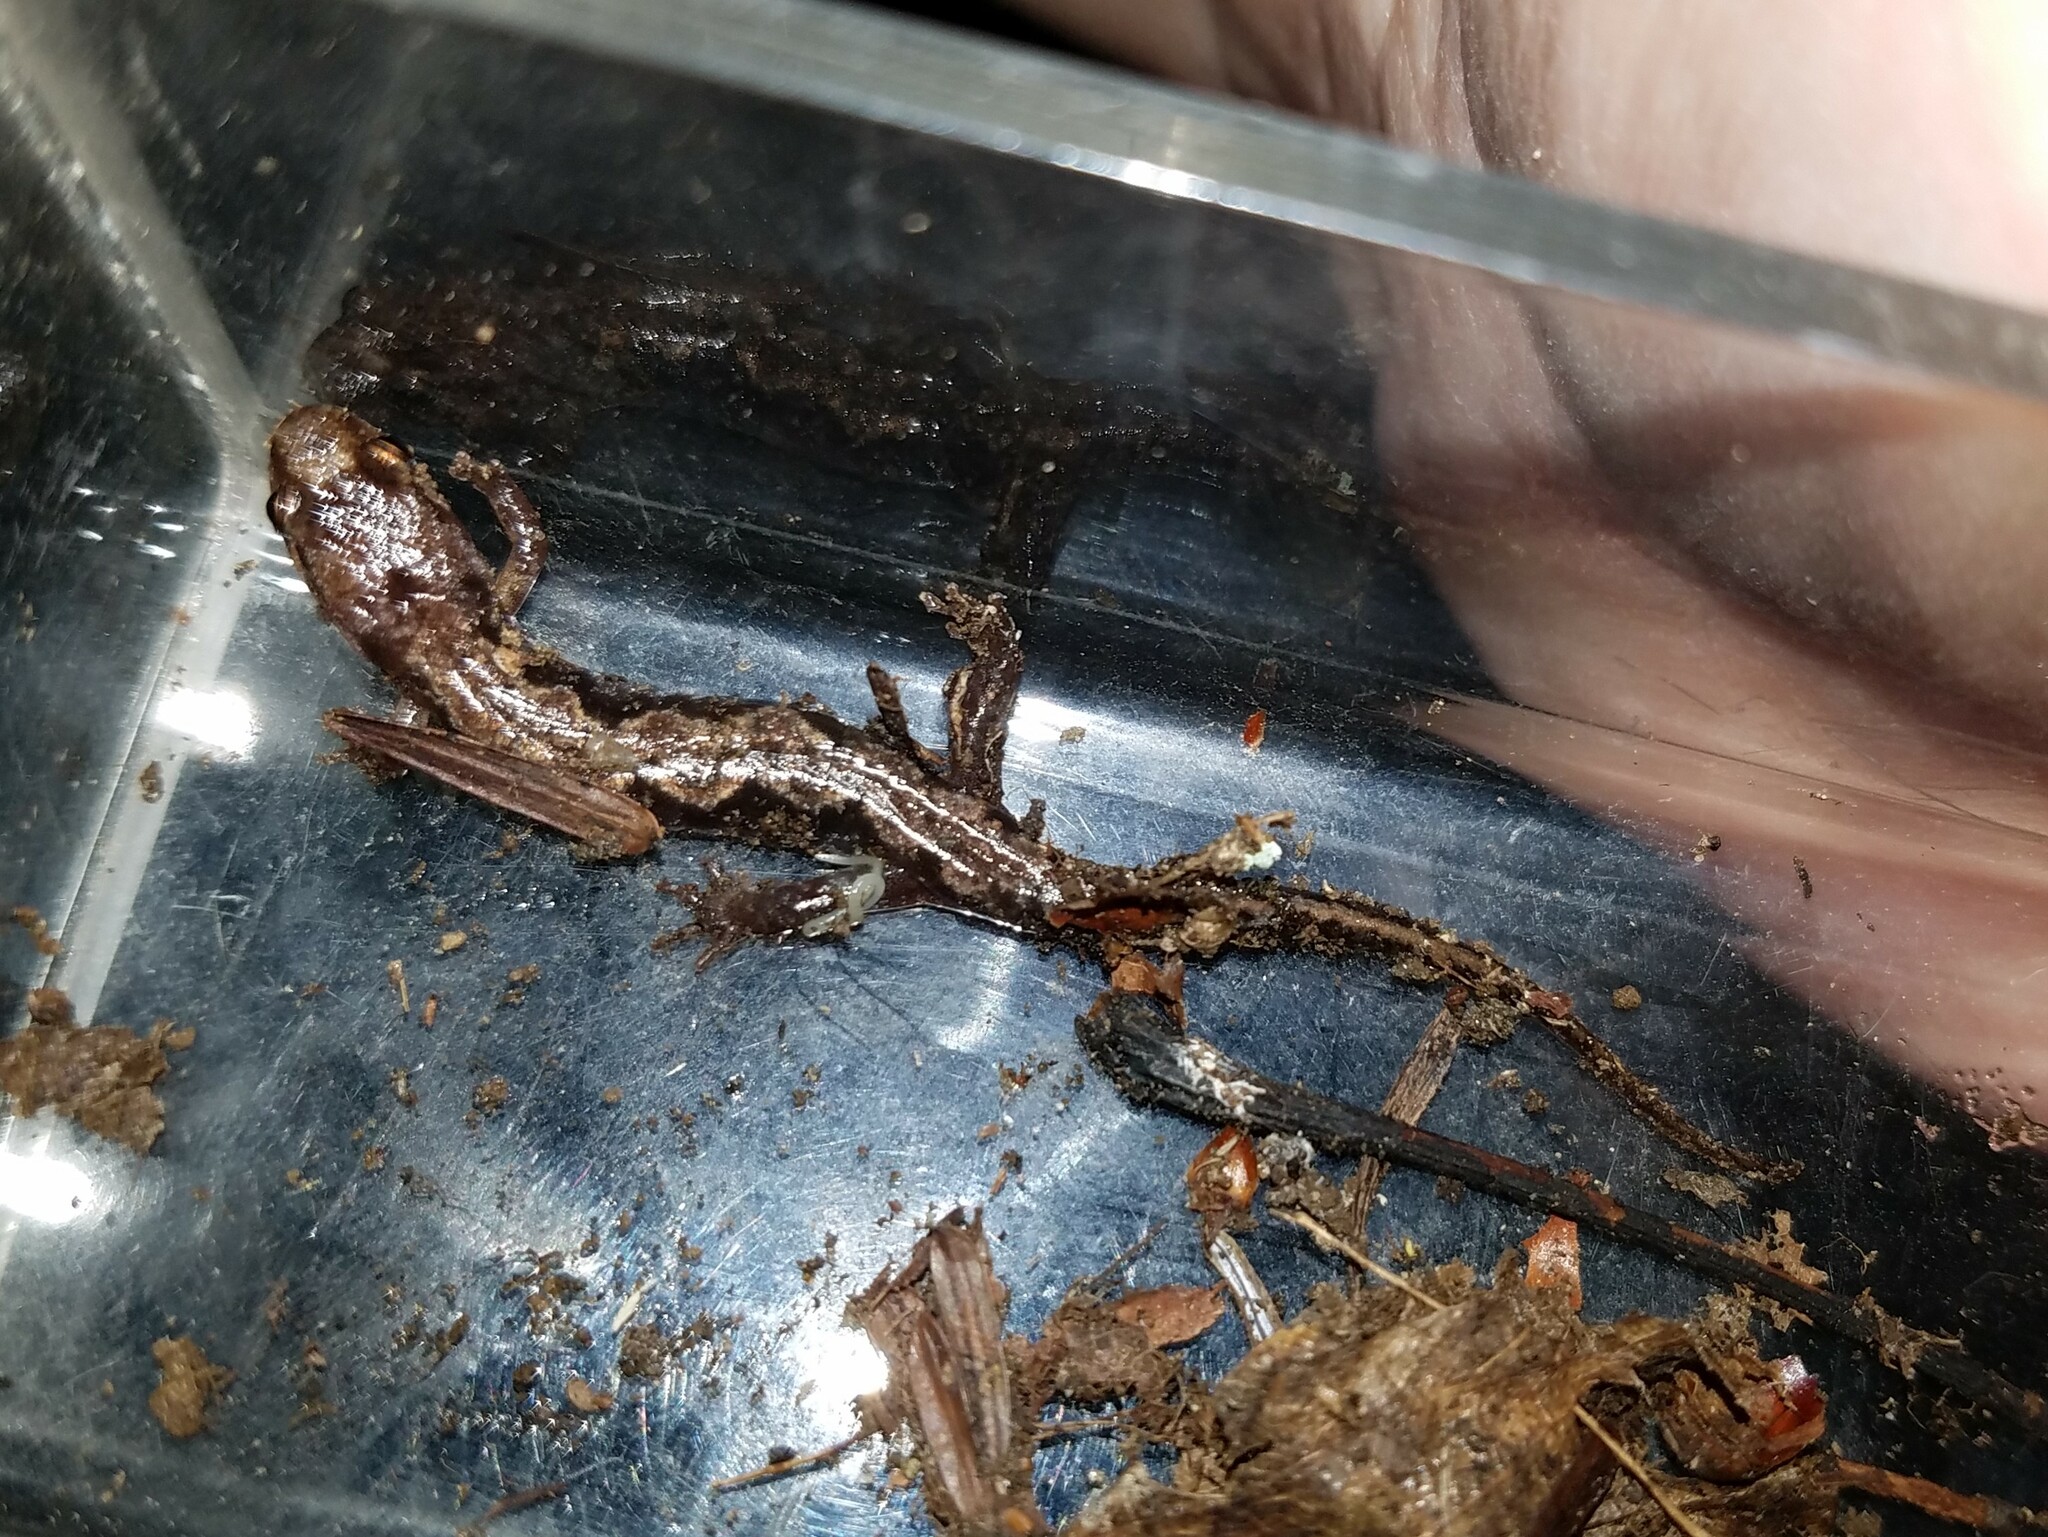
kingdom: Animalia
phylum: Chordata
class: Amphibia
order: Caudata
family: Plethodontidae
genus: Desmognathus
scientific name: Desmognathus ocoee
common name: Ocoee salamander
